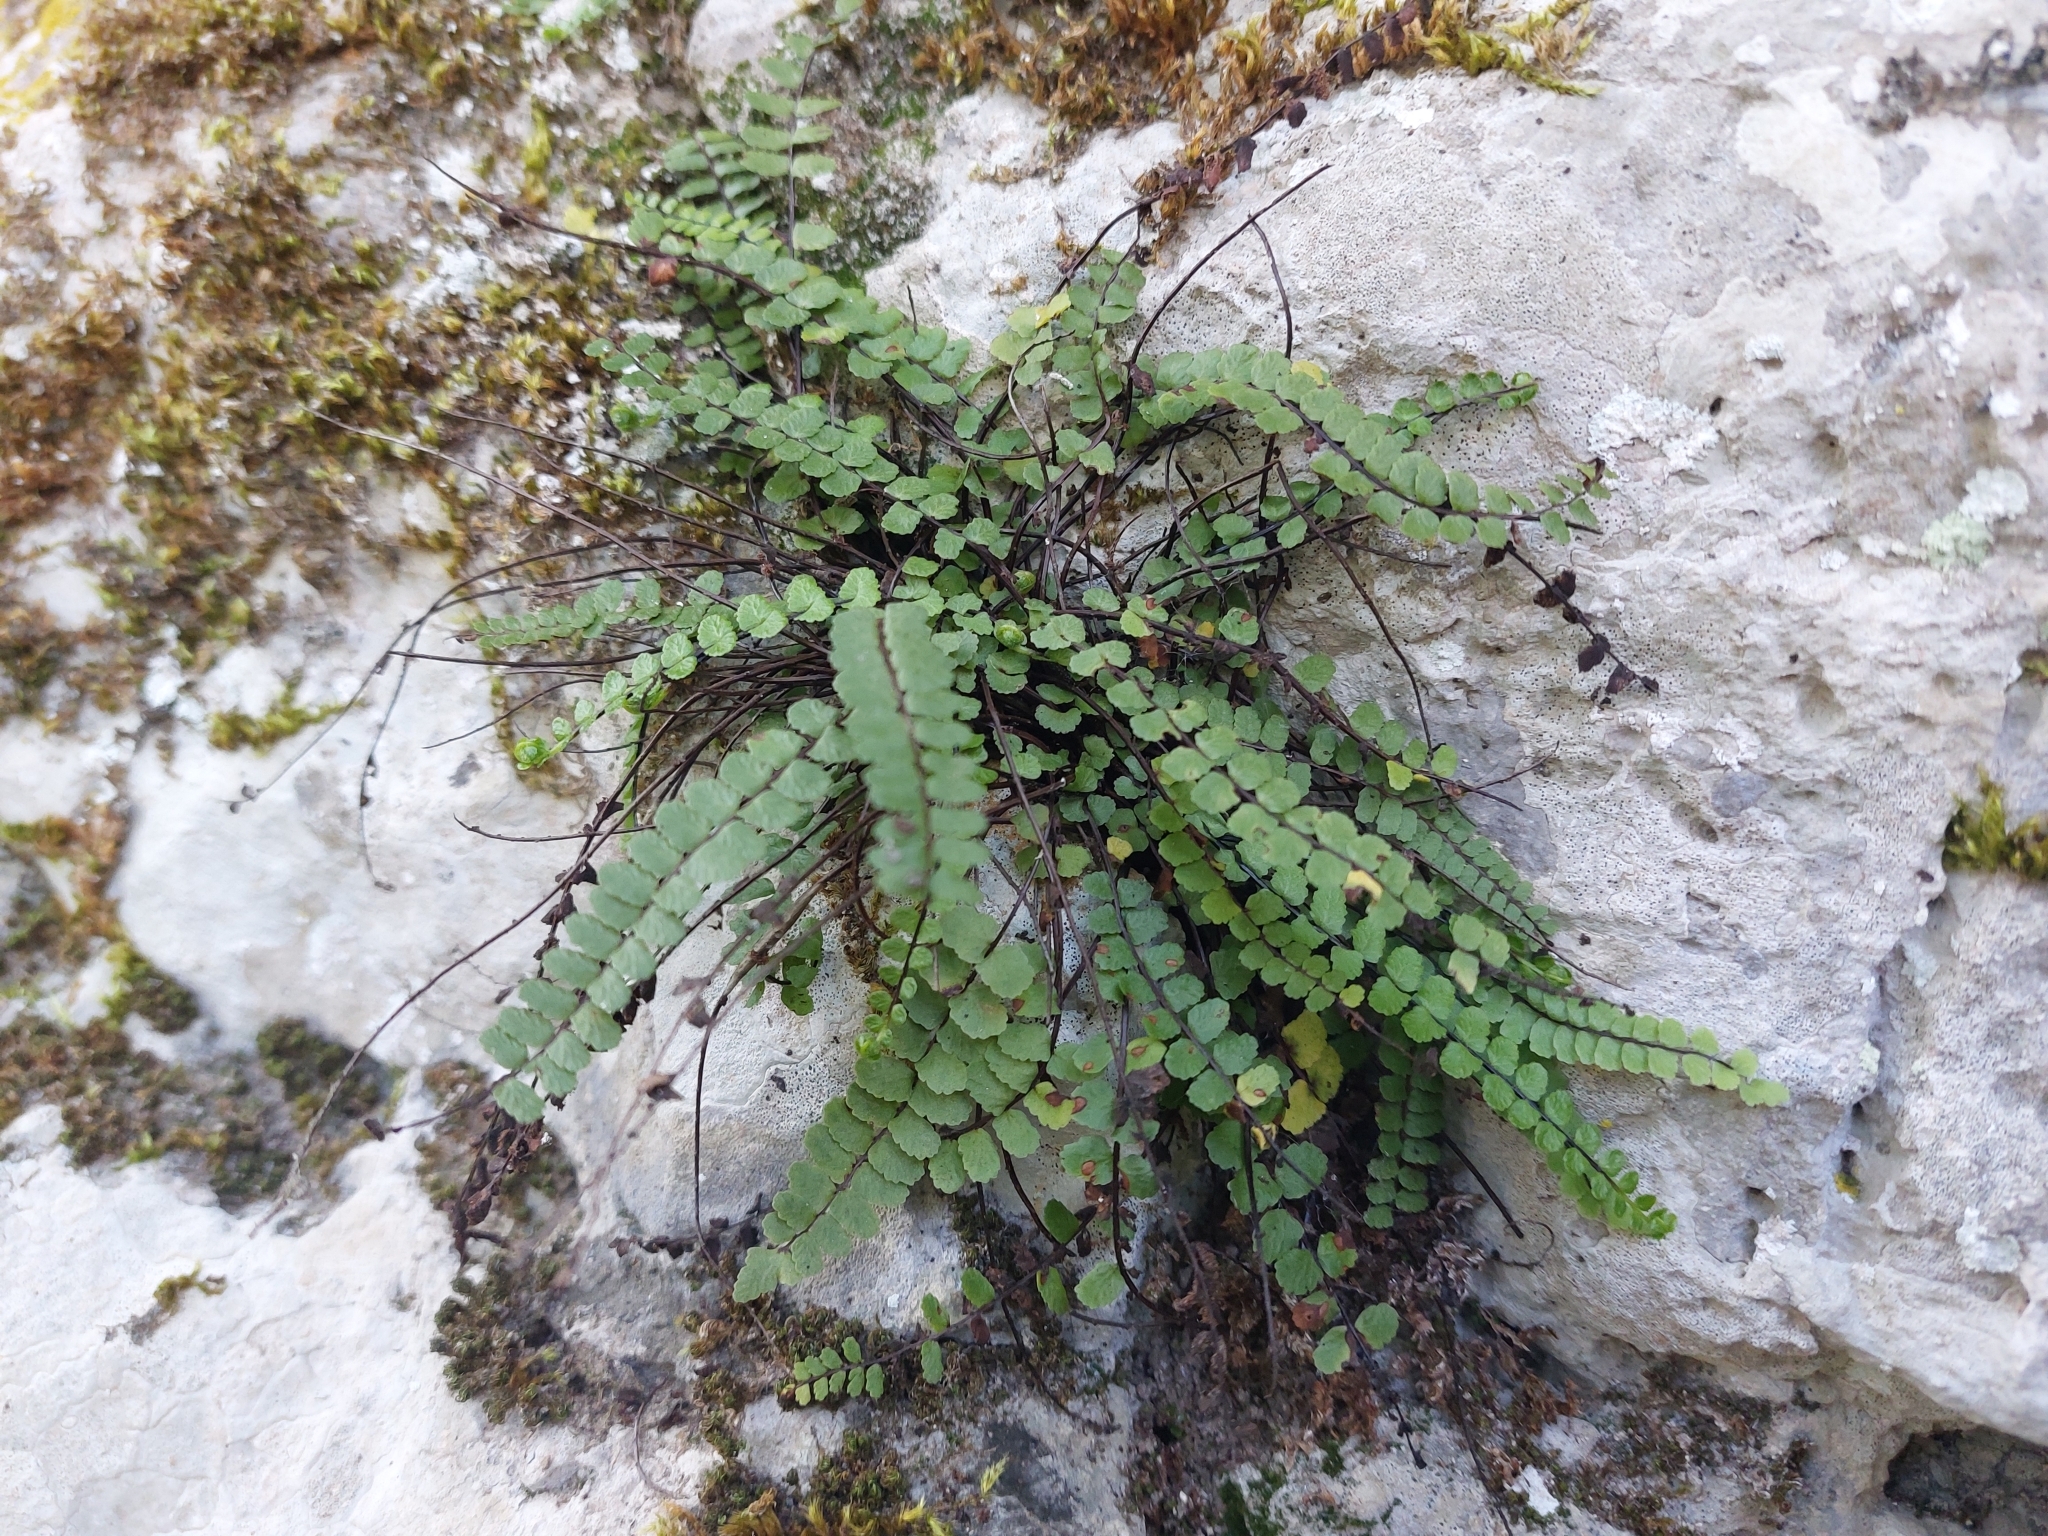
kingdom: Plantae
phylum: Tracheophyta
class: Polypodiopsida
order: Polypodiales
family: Aspleniaceae
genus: Asplenium
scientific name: Asplenium trichomanes
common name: Maidenhair spleenwort
